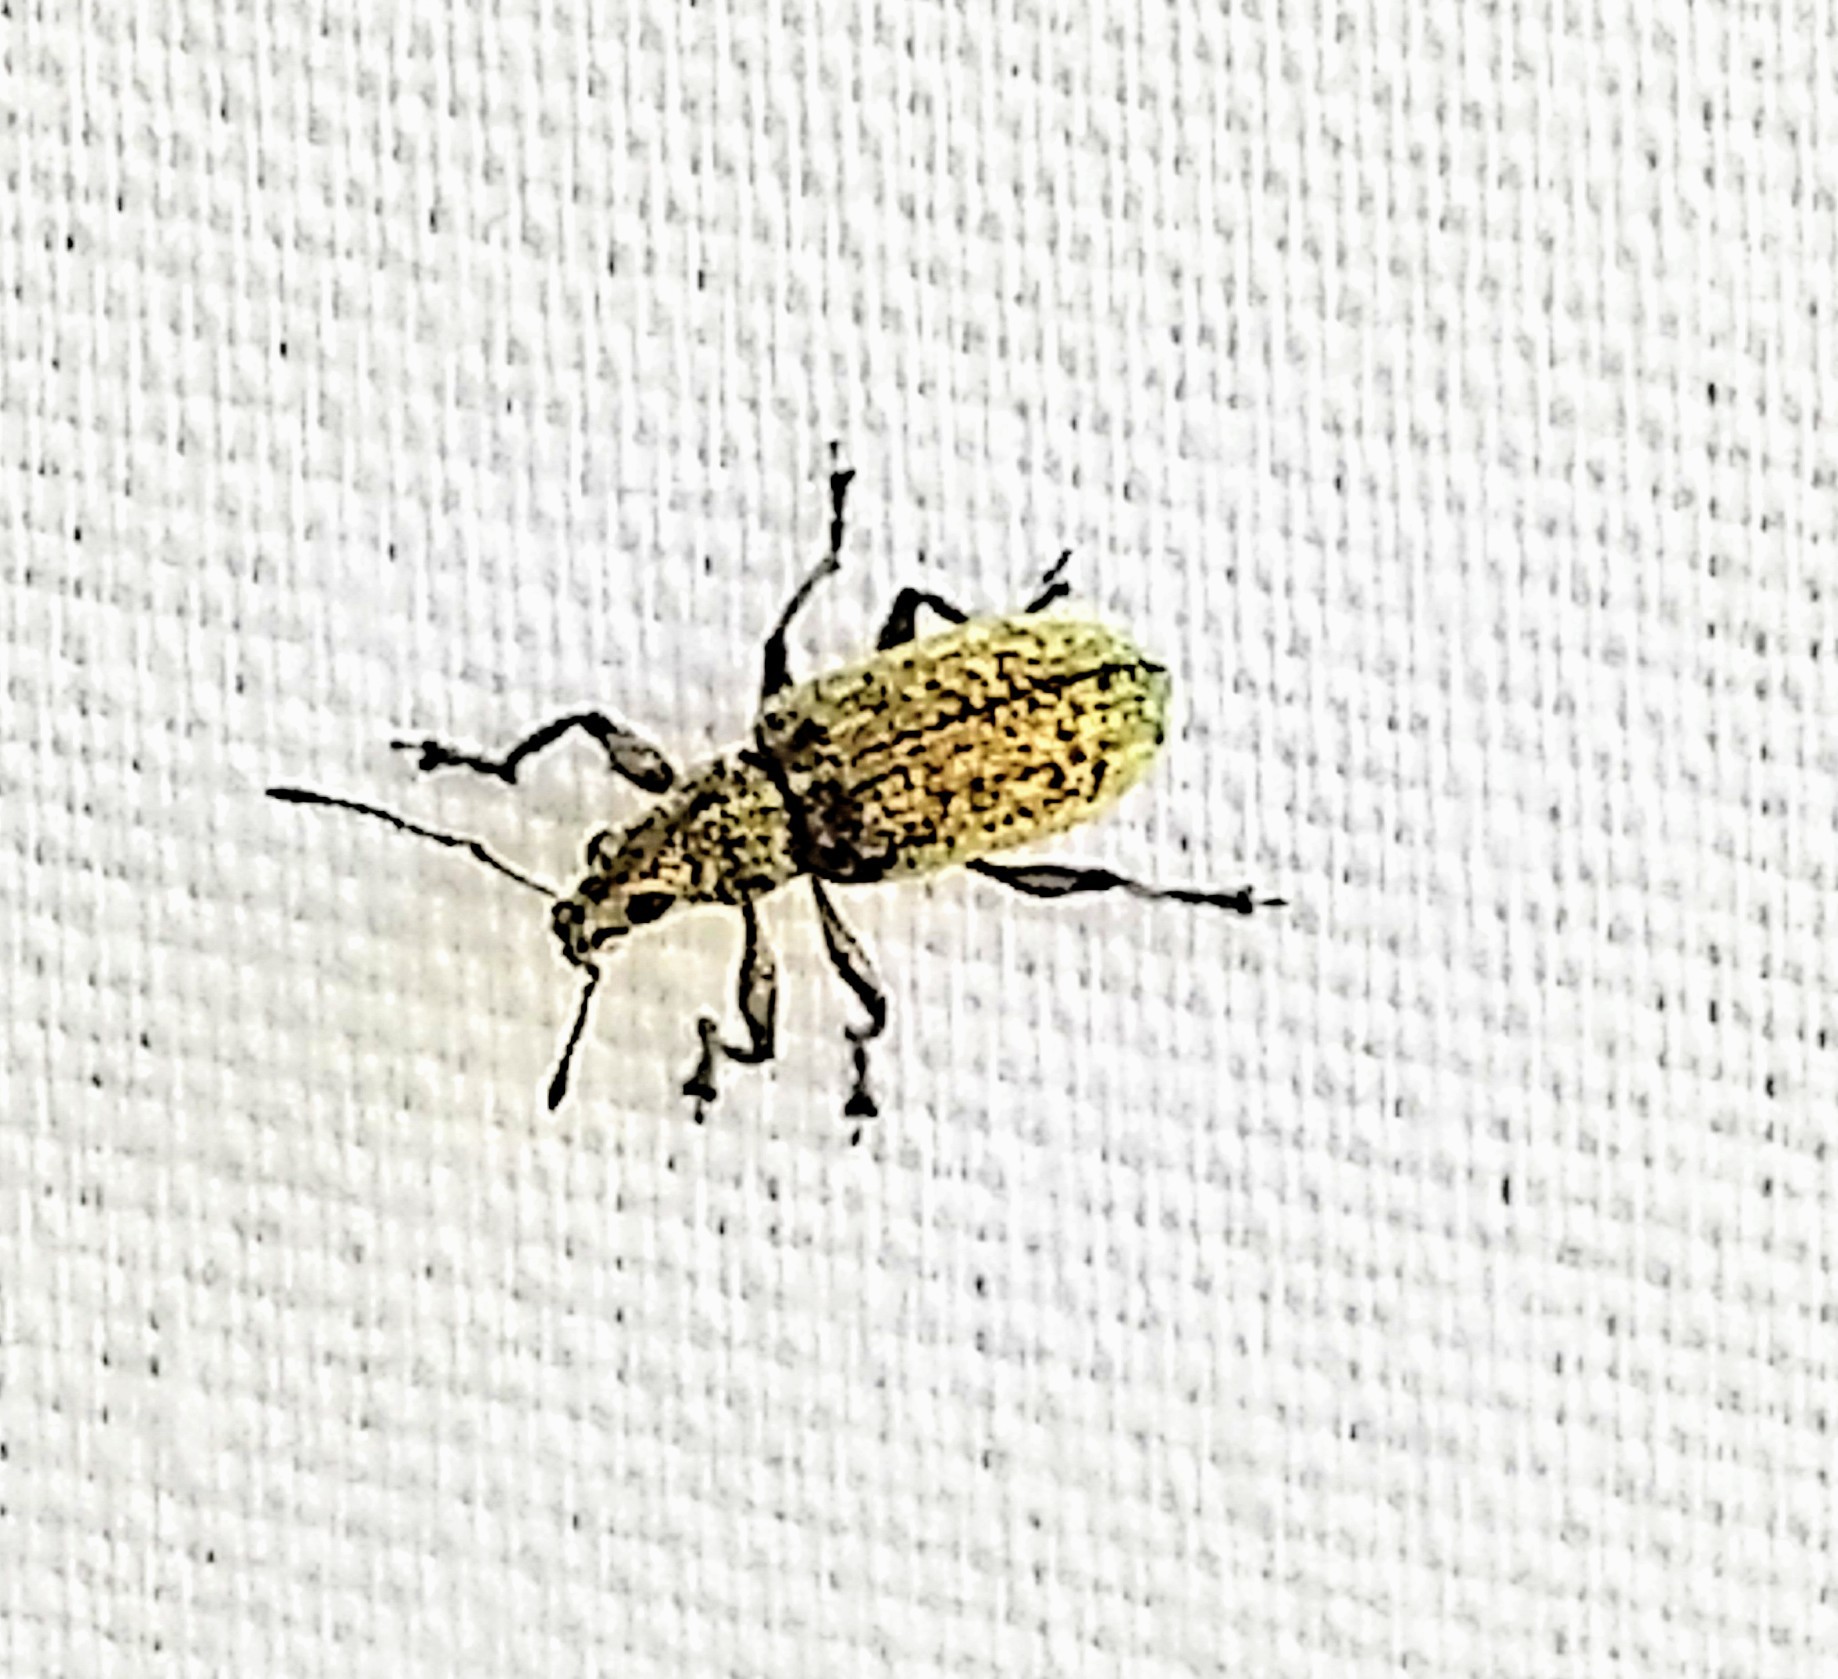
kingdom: Animalia
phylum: Arthropoda
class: Insecta
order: Coleoptera
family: Curculionidae
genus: Polydrusus
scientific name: Polydrusus cervinus
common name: Weevil
